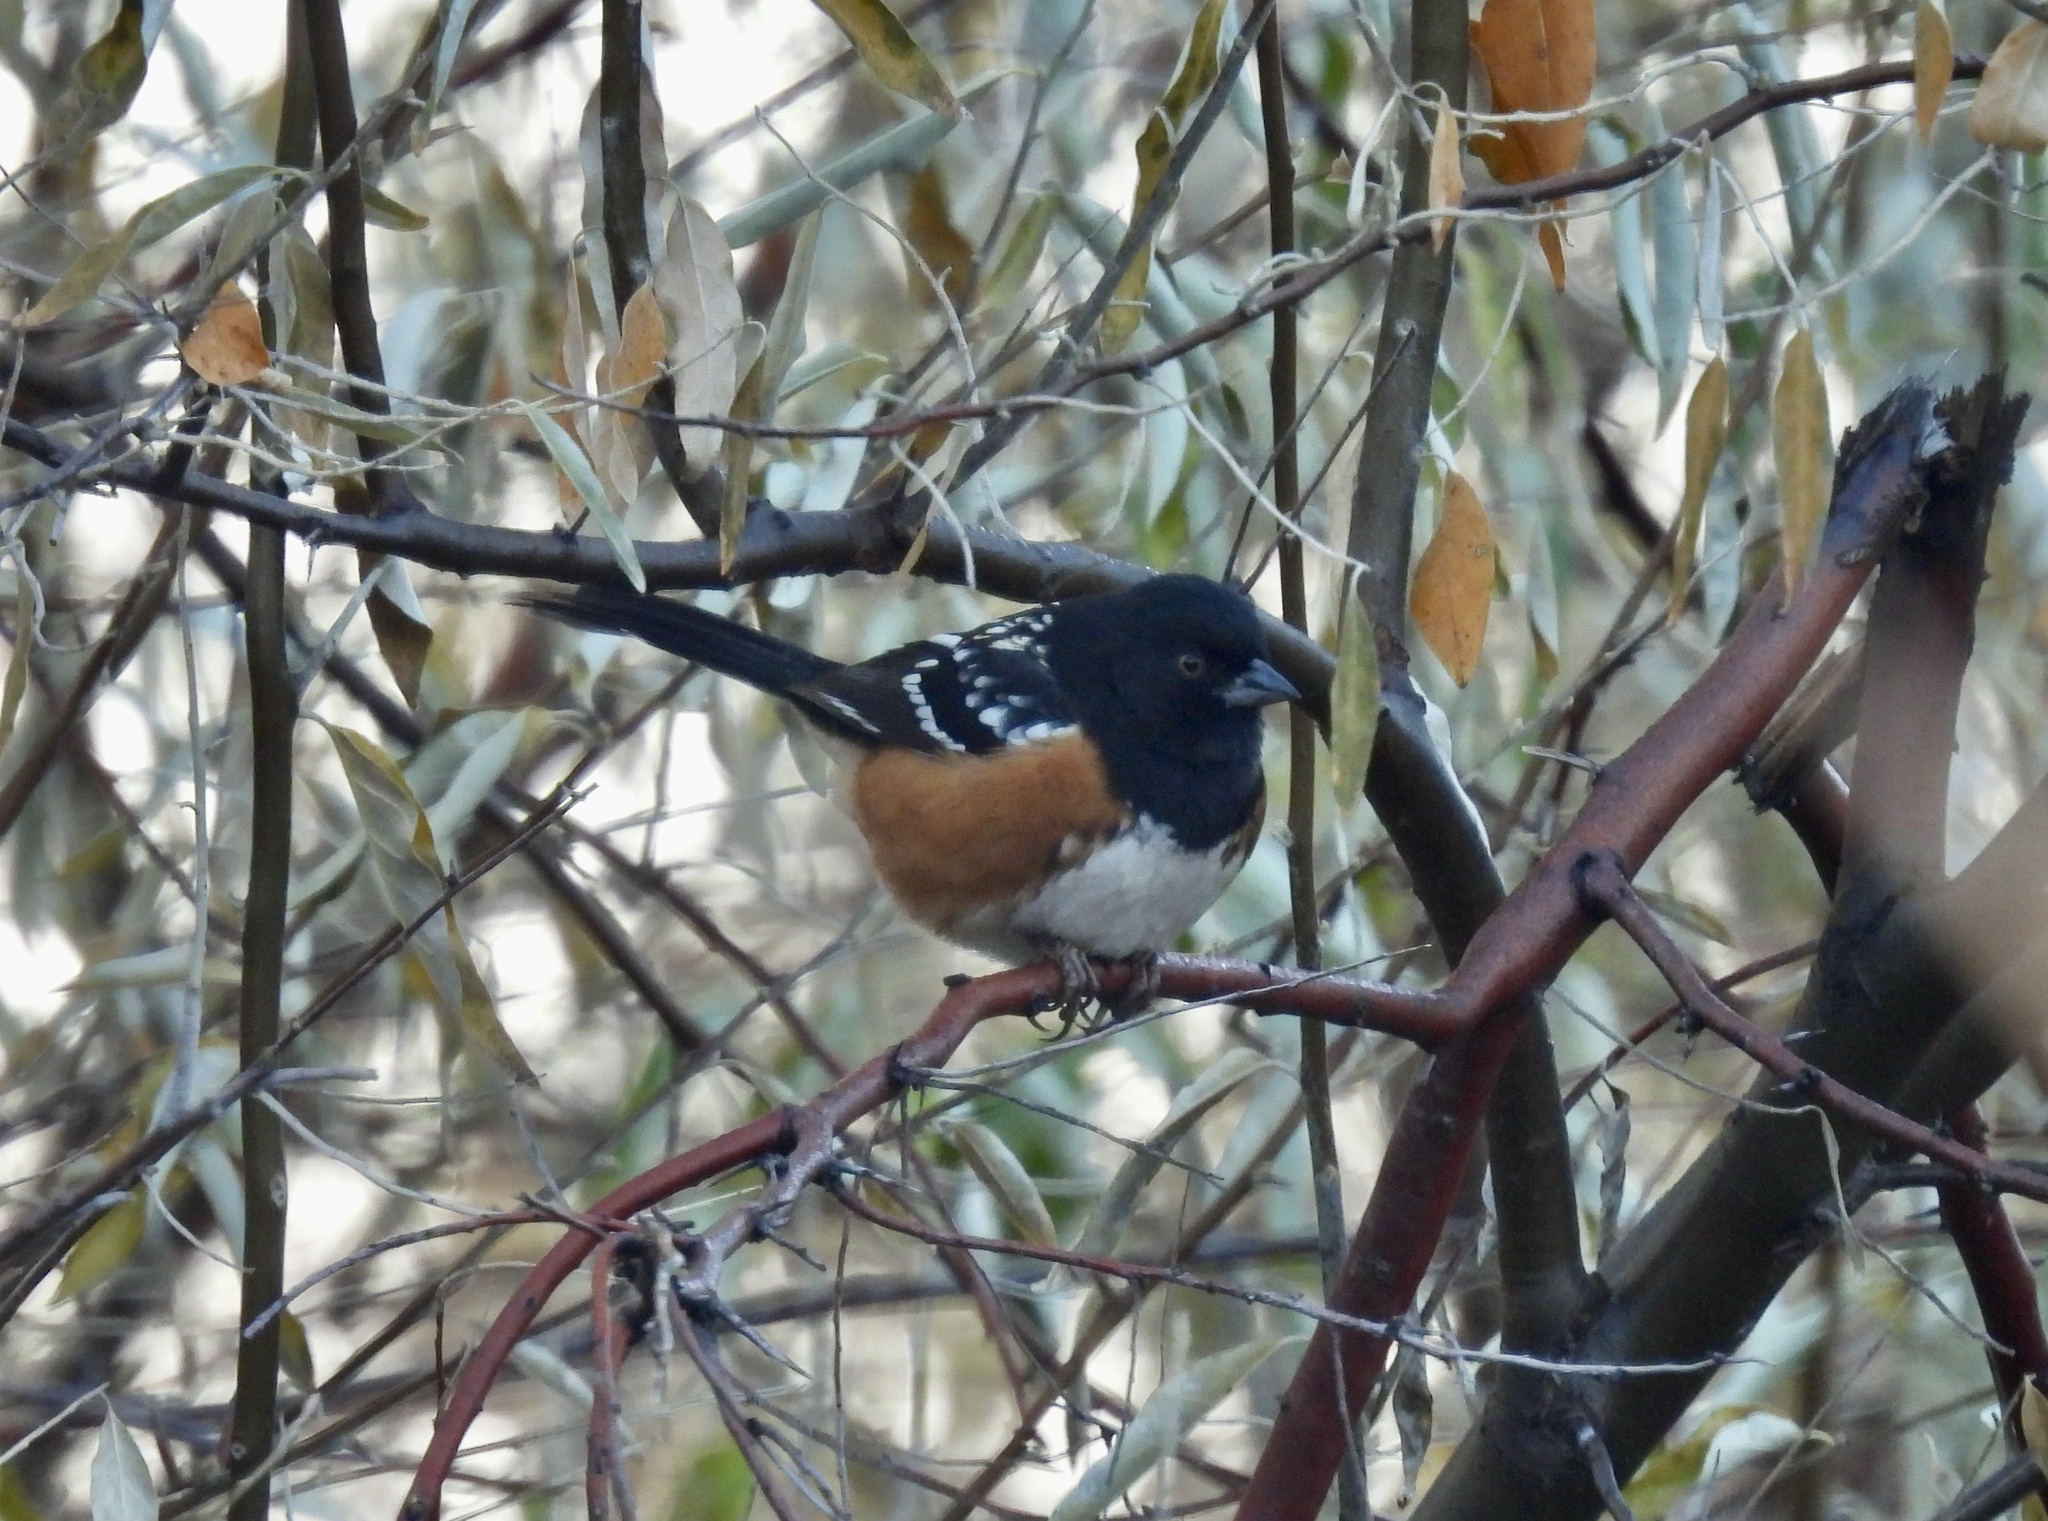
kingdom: Animalia
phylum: Chordata
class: Aves
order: Passeriformes
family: Passerellidae
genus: Pipilo
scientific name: Pipilo maculatus
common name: Spotted towhee
